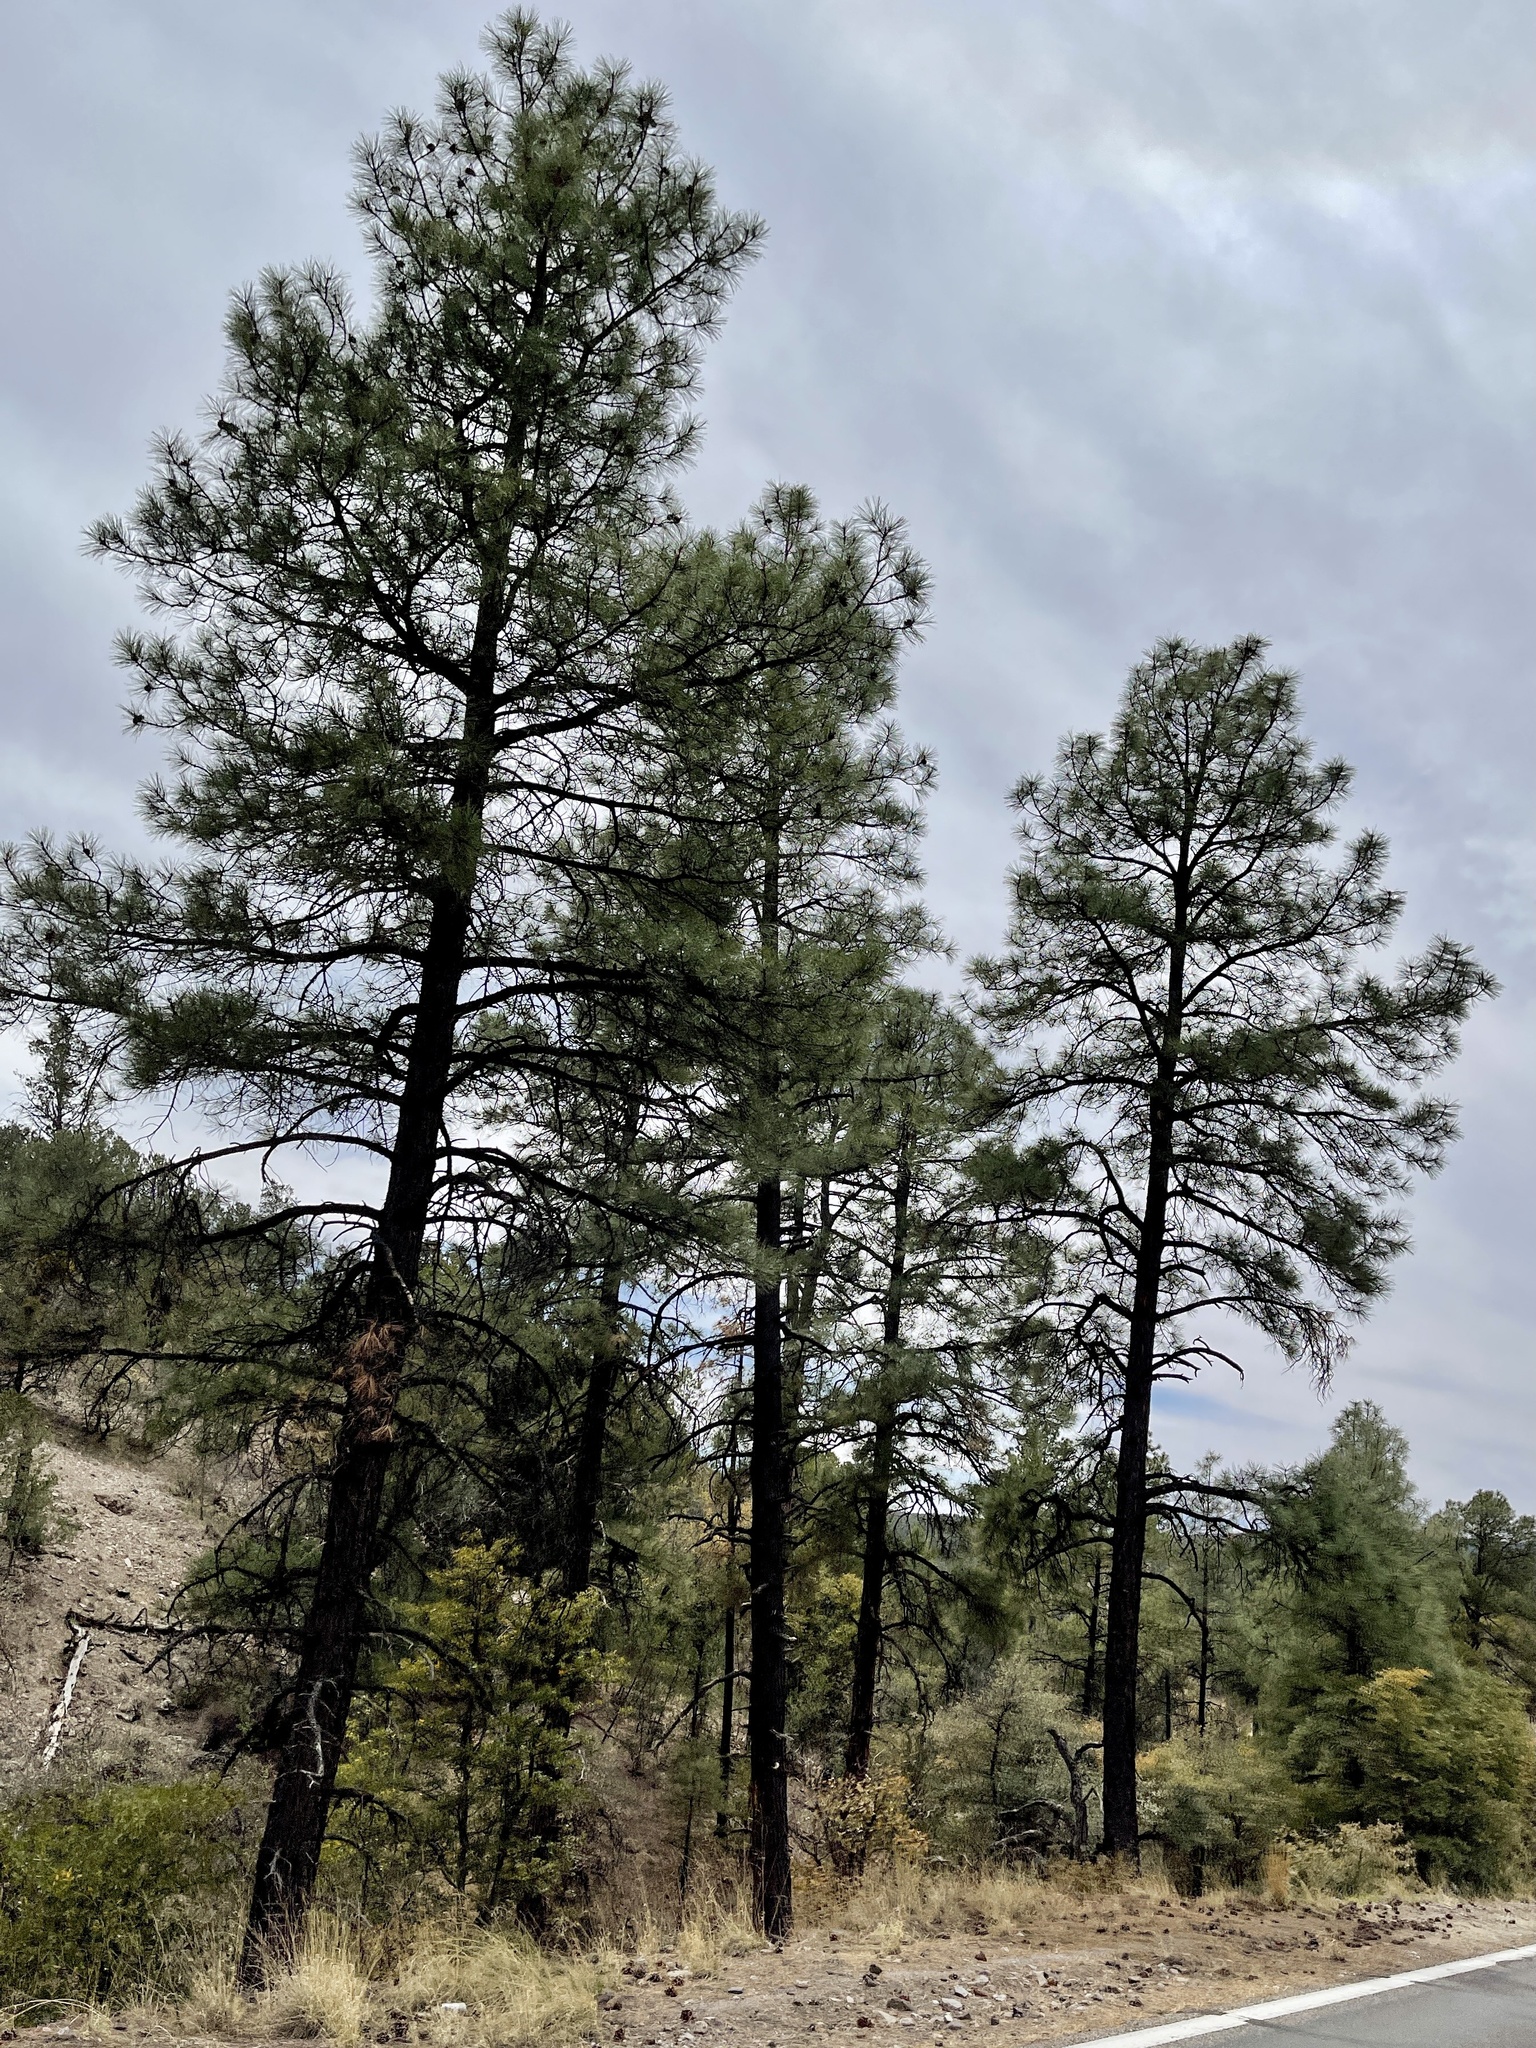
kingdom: Plantae
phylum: Tracheophyta
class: Pinopsida
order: Pinales
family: Pinaceae
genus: Pinus
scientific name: Pinus ponderosa
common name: Western yellow-pine
